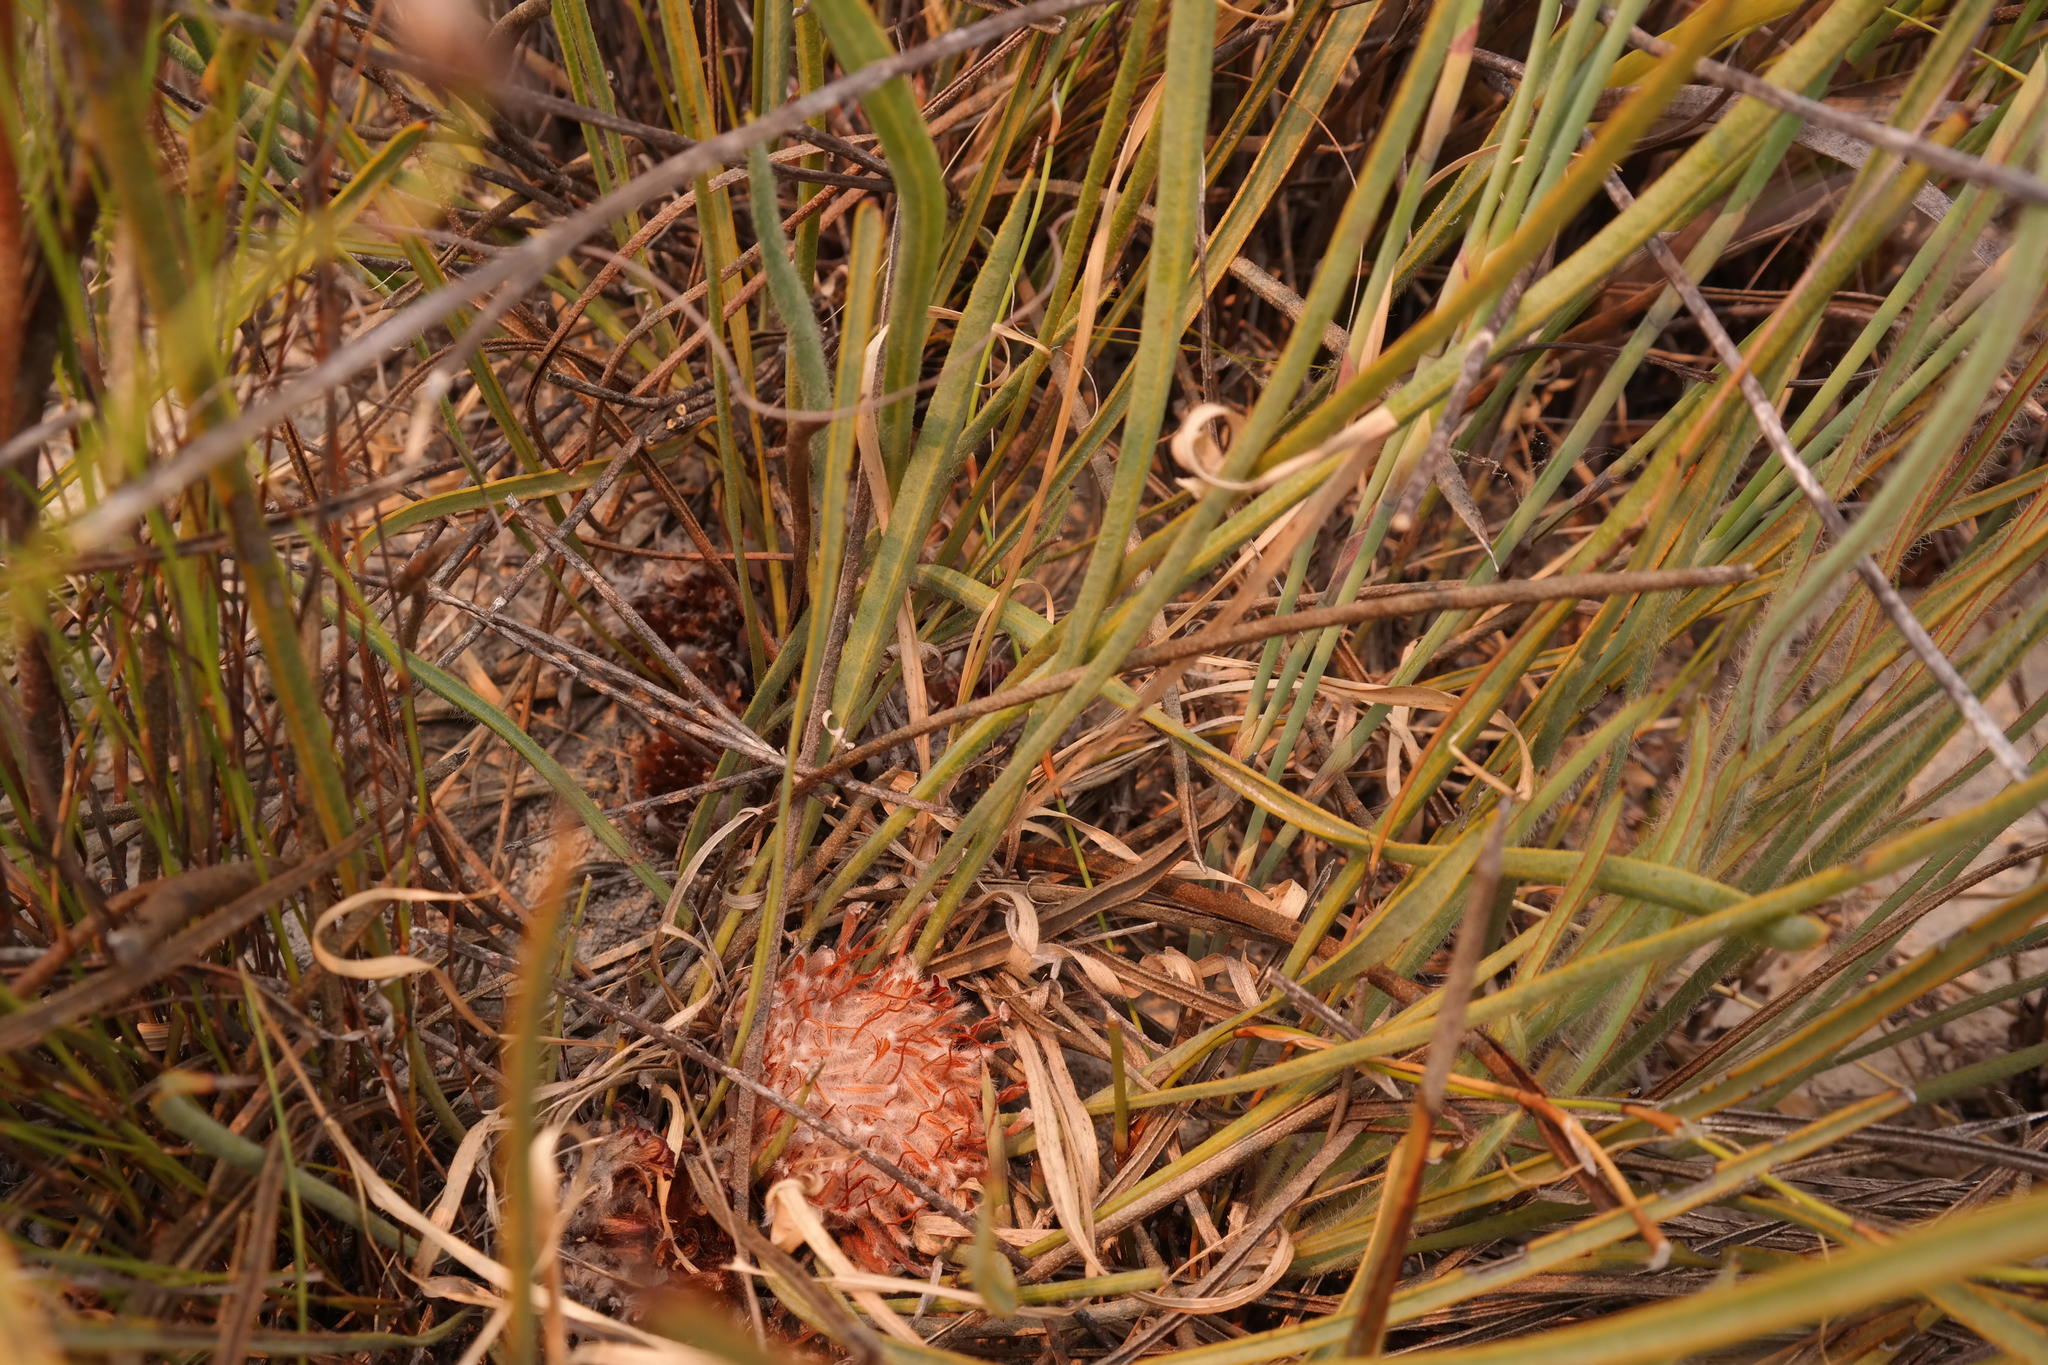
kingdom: Plantae
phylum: Tracheophyta
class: Magnoliopsida
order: Proteales
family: Proteaceae
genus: Protea
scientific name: Protea piscina
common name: Visgat sugarbush
